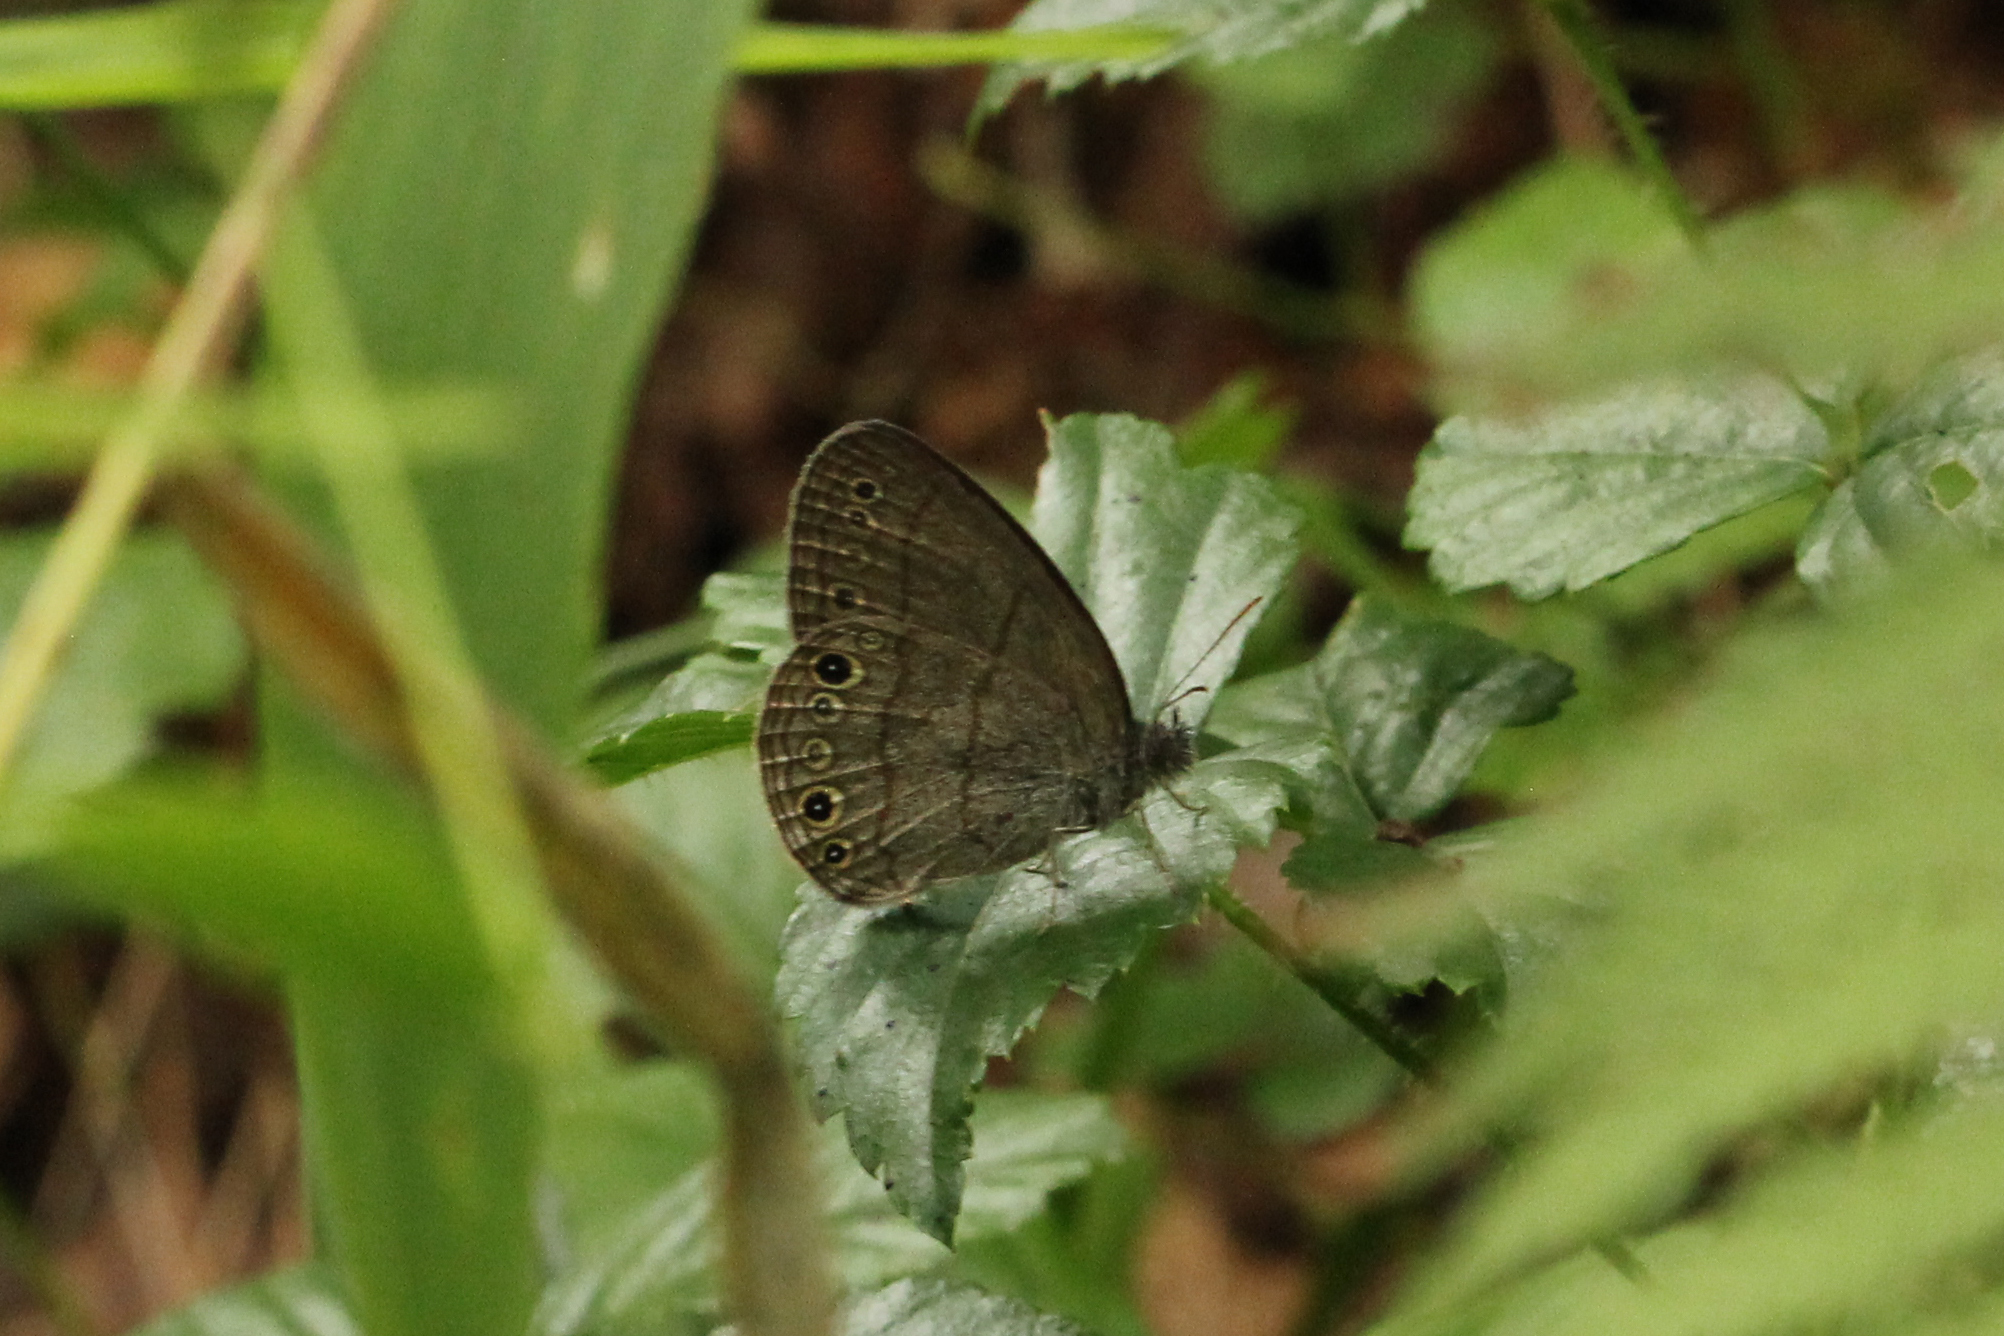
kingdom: Animalia
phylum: Arthropoda
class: Insecta
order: Lepidoptera
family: Nymphalidae
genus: Hermeuptychia
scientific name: Hermeuptychia hermes
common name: Hermes satyr
